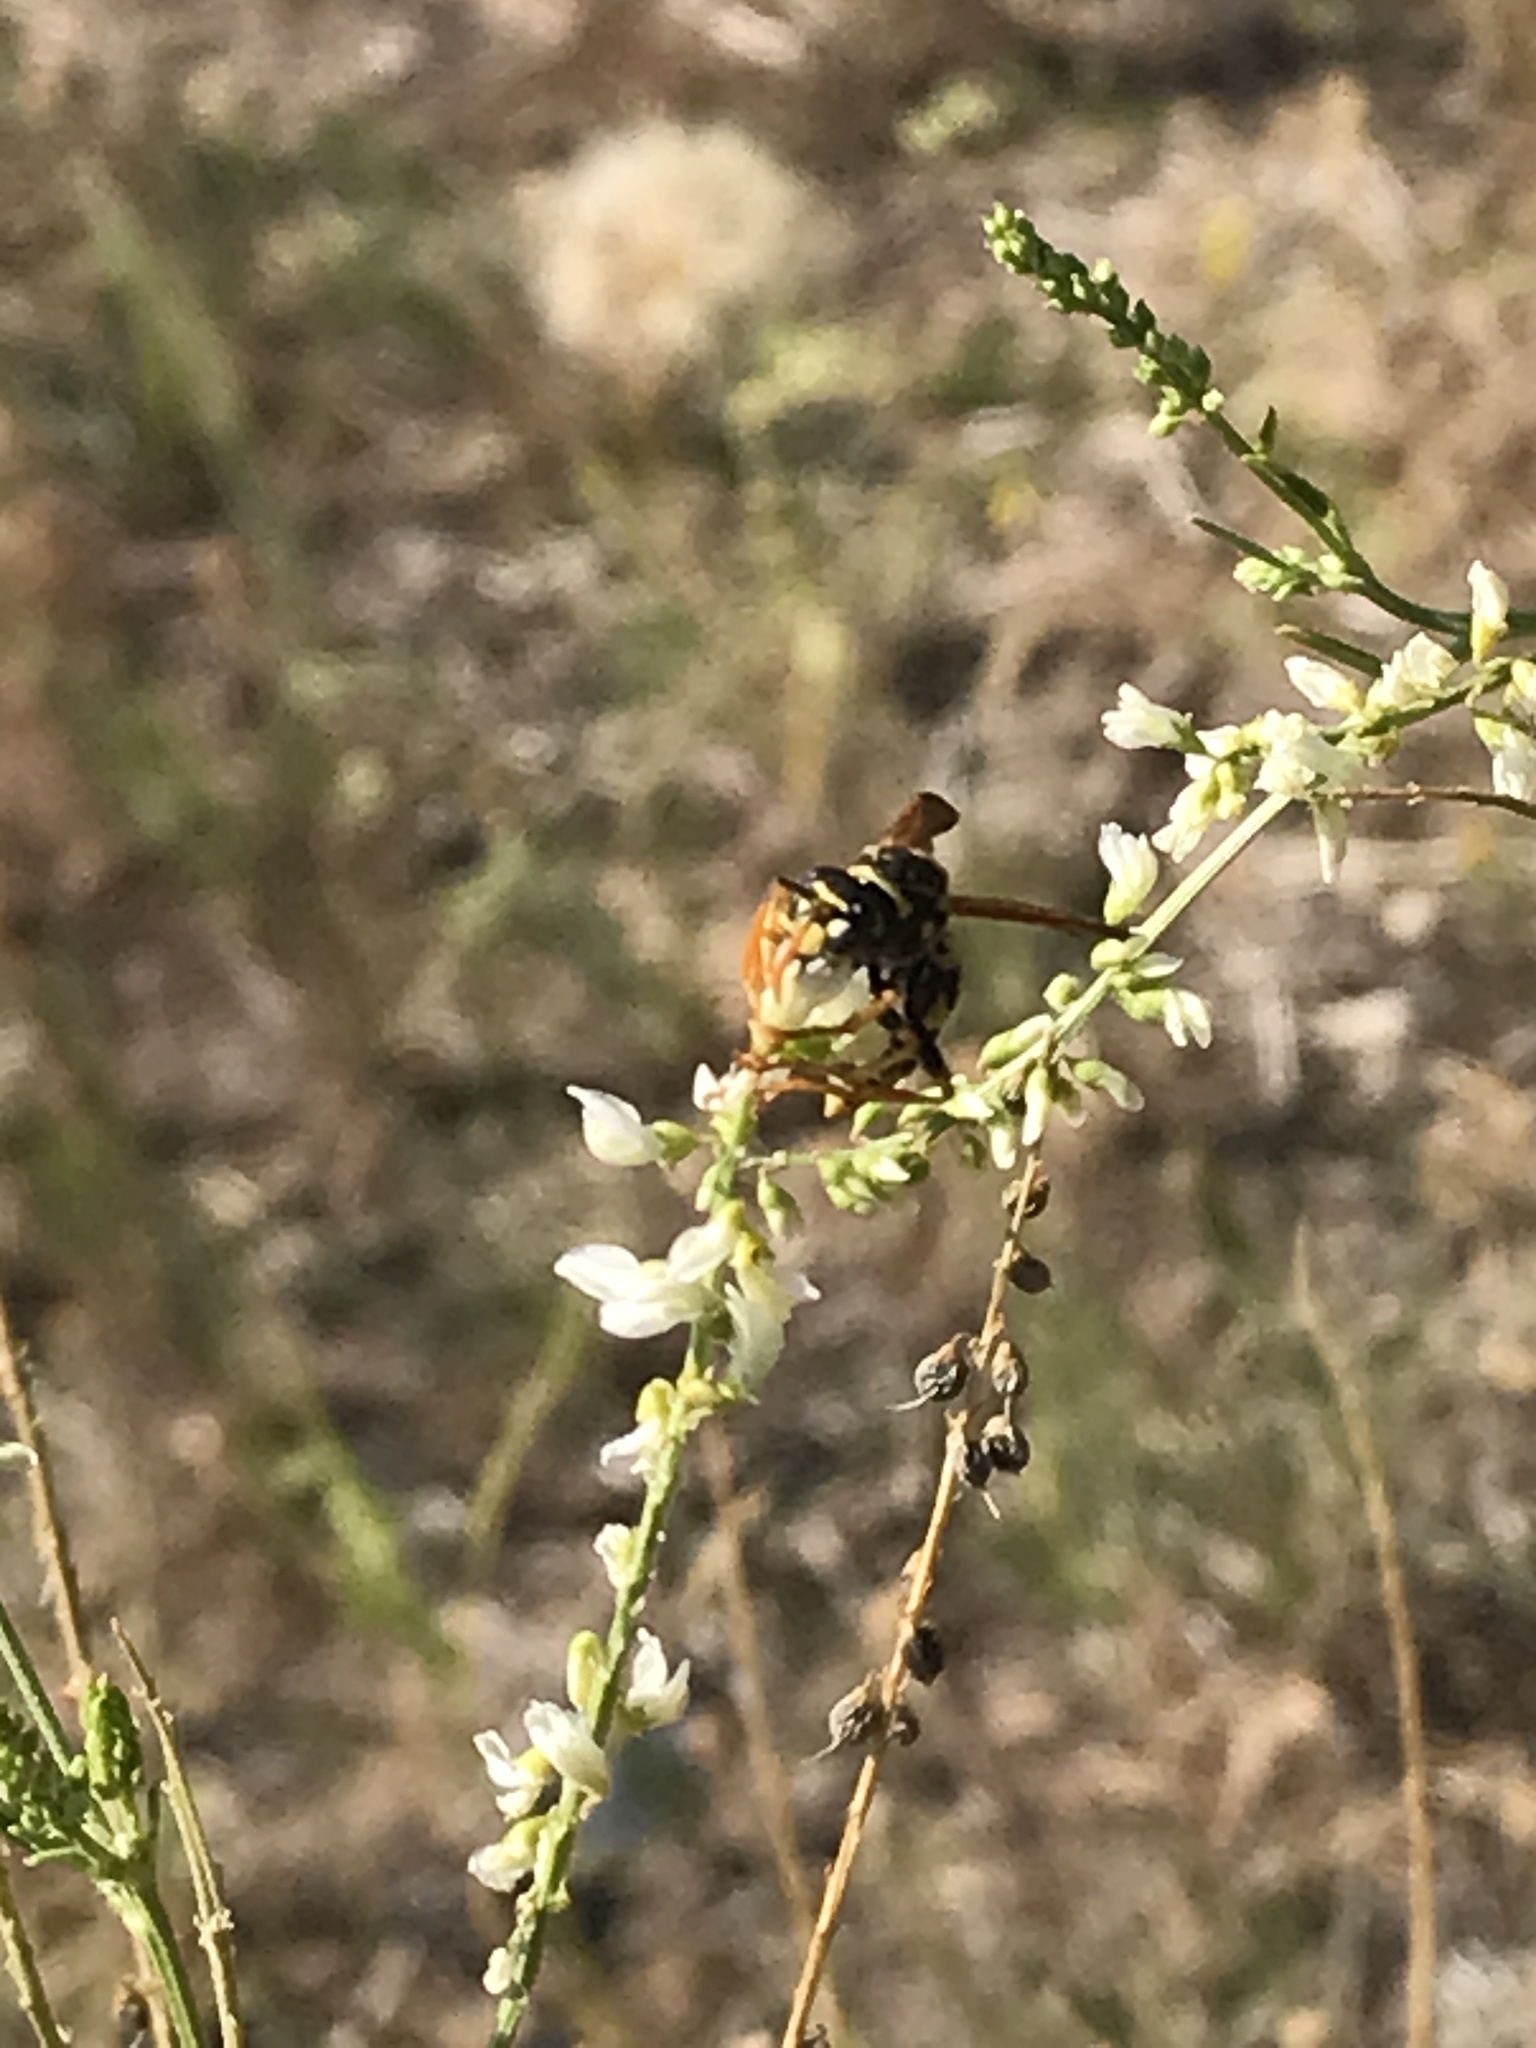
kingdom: Animalia
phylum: Arthropoda
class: Insecta
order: Hymenoptera
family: Eumenidae
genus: Polistes
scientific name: Polistes dominula
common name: Paper wasp
